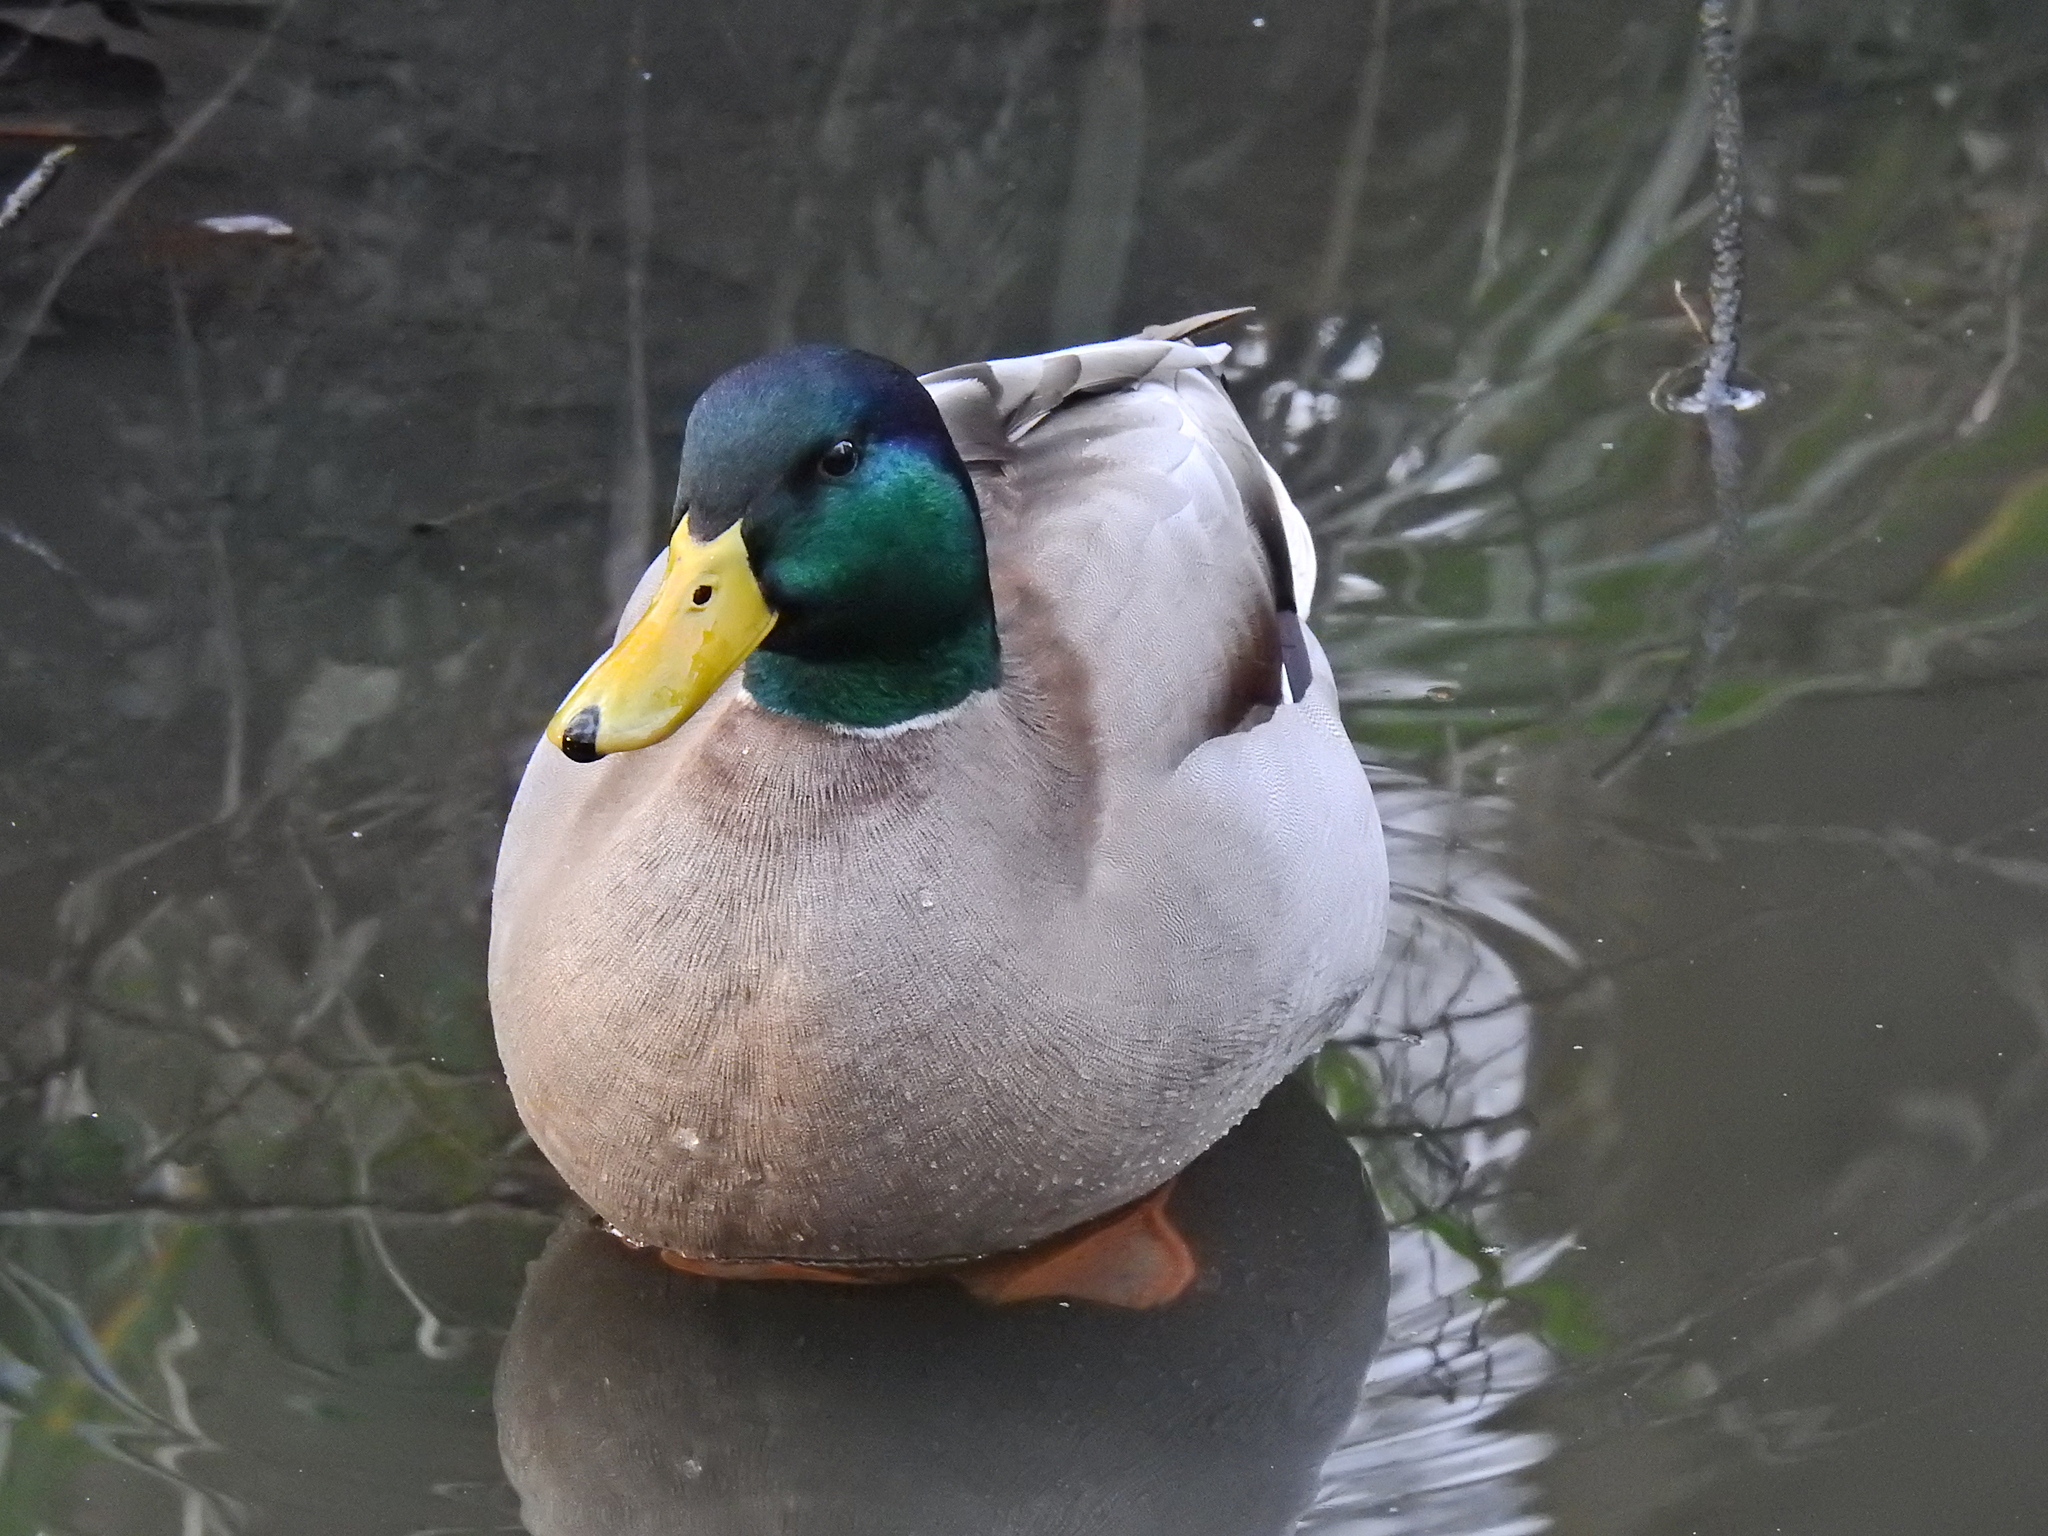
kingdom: Animalia
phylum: Chordata
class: Aves
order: Anseriformes
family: Anatidae
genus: Anas
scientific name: Anas platyrhynchos
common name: Mallard
